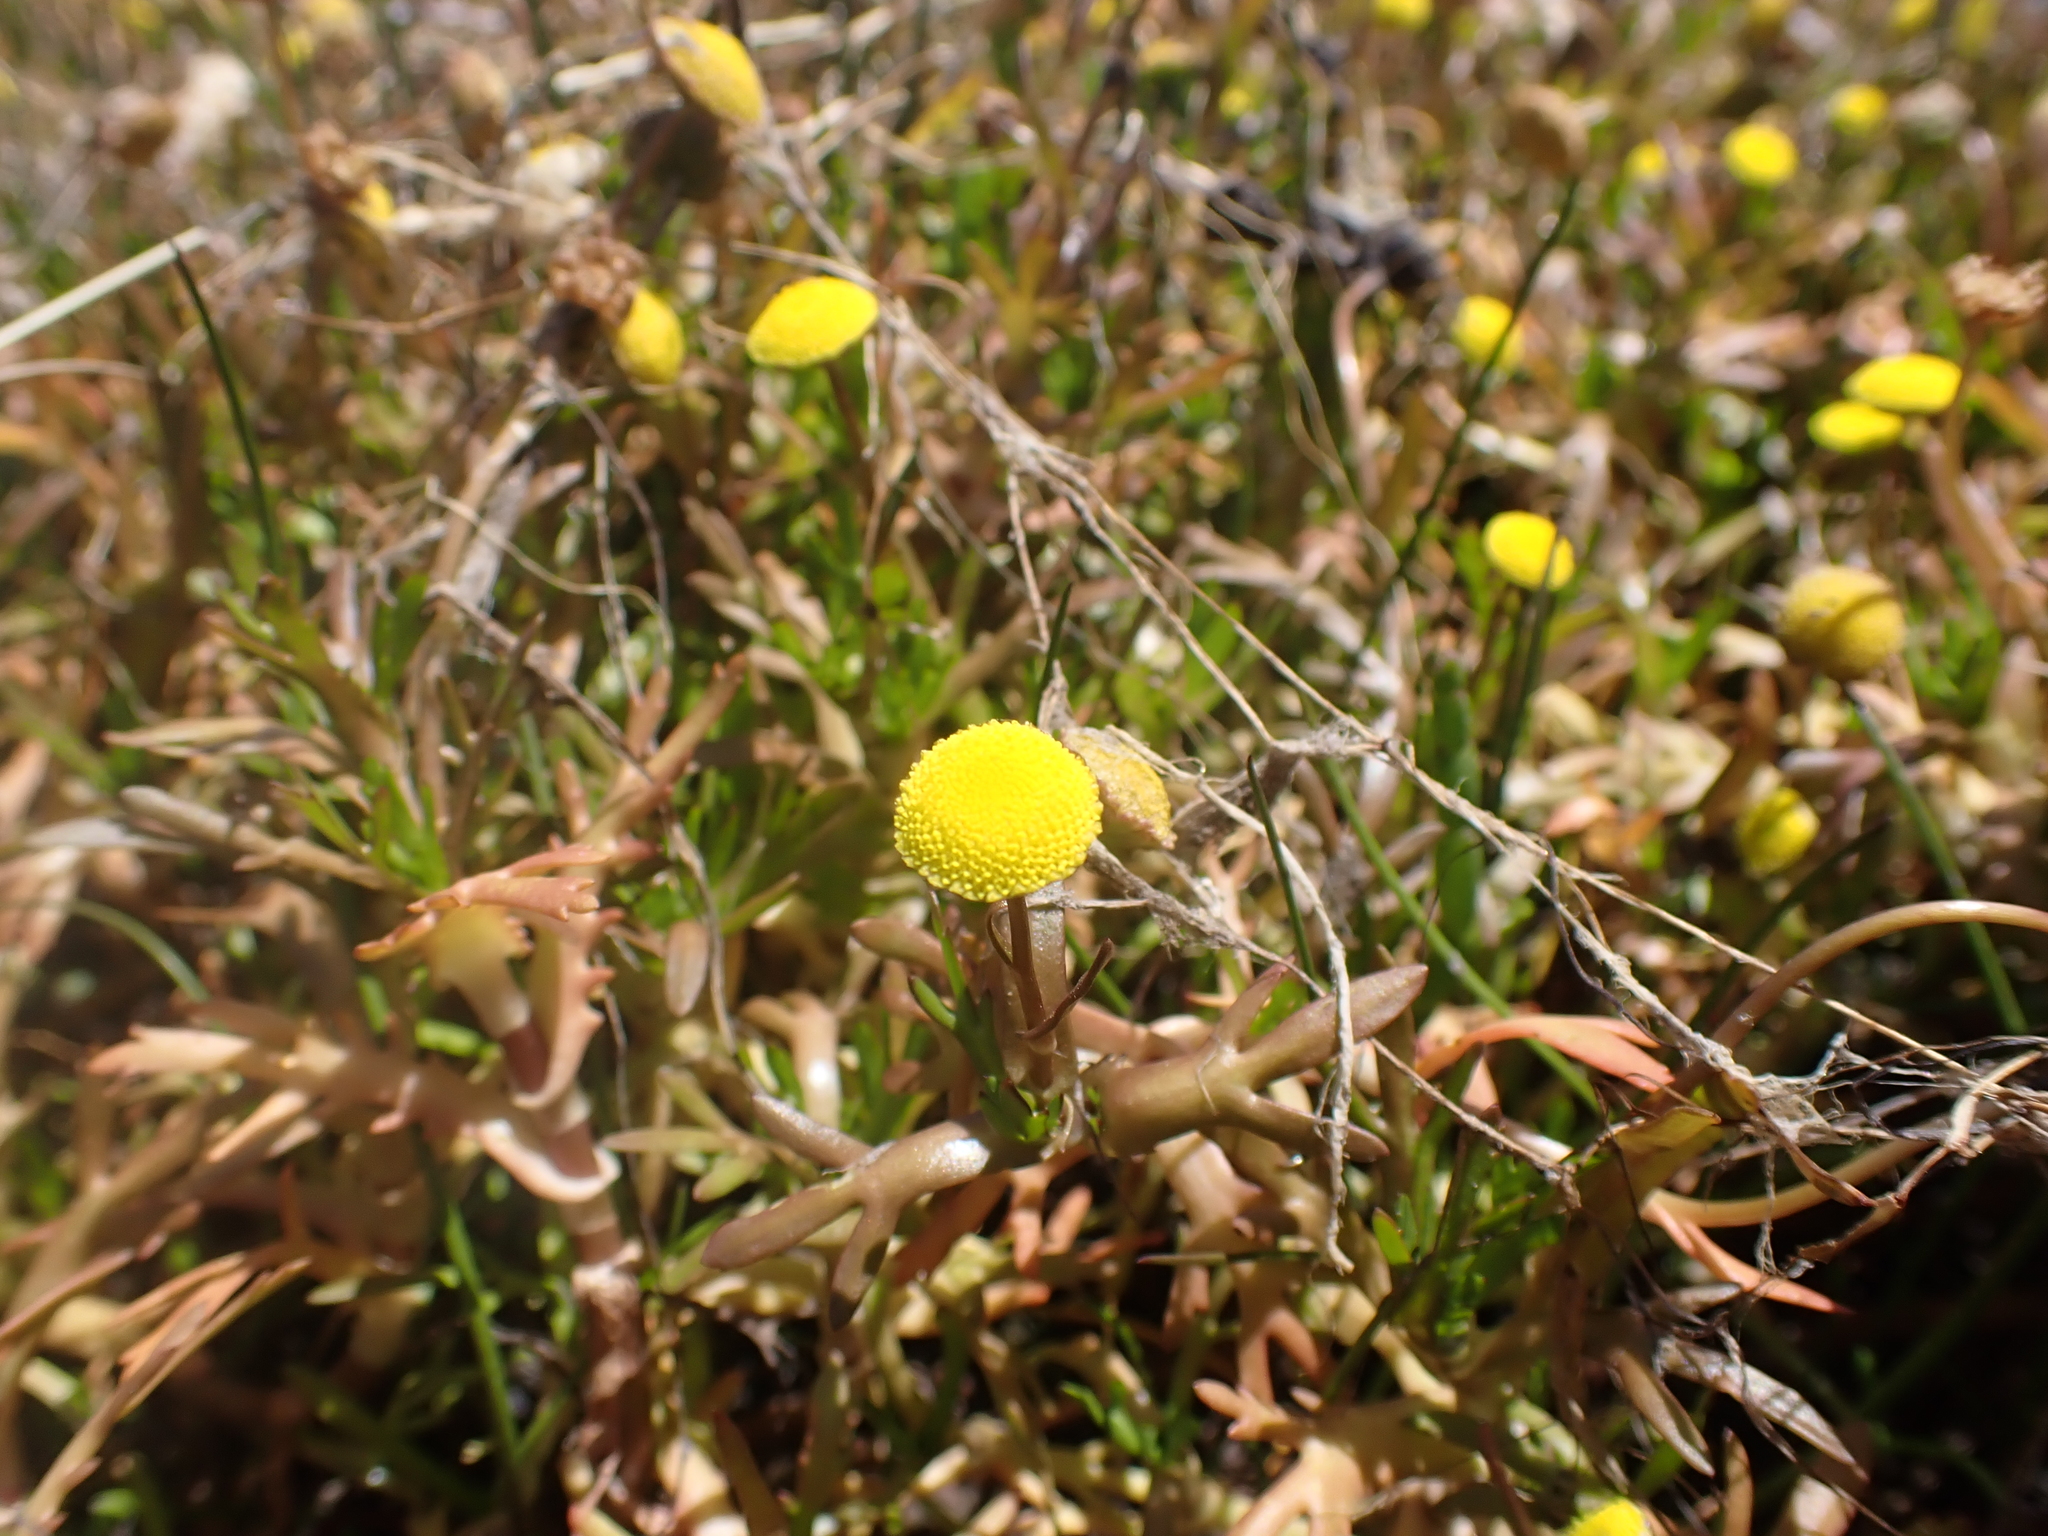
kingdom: Plantae
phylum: Tracheophyta
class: Magnoliopsida
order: Asterales
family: Asteraceae
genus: Cotula
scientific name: Cotula coronopifolia
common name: Buttonweed
